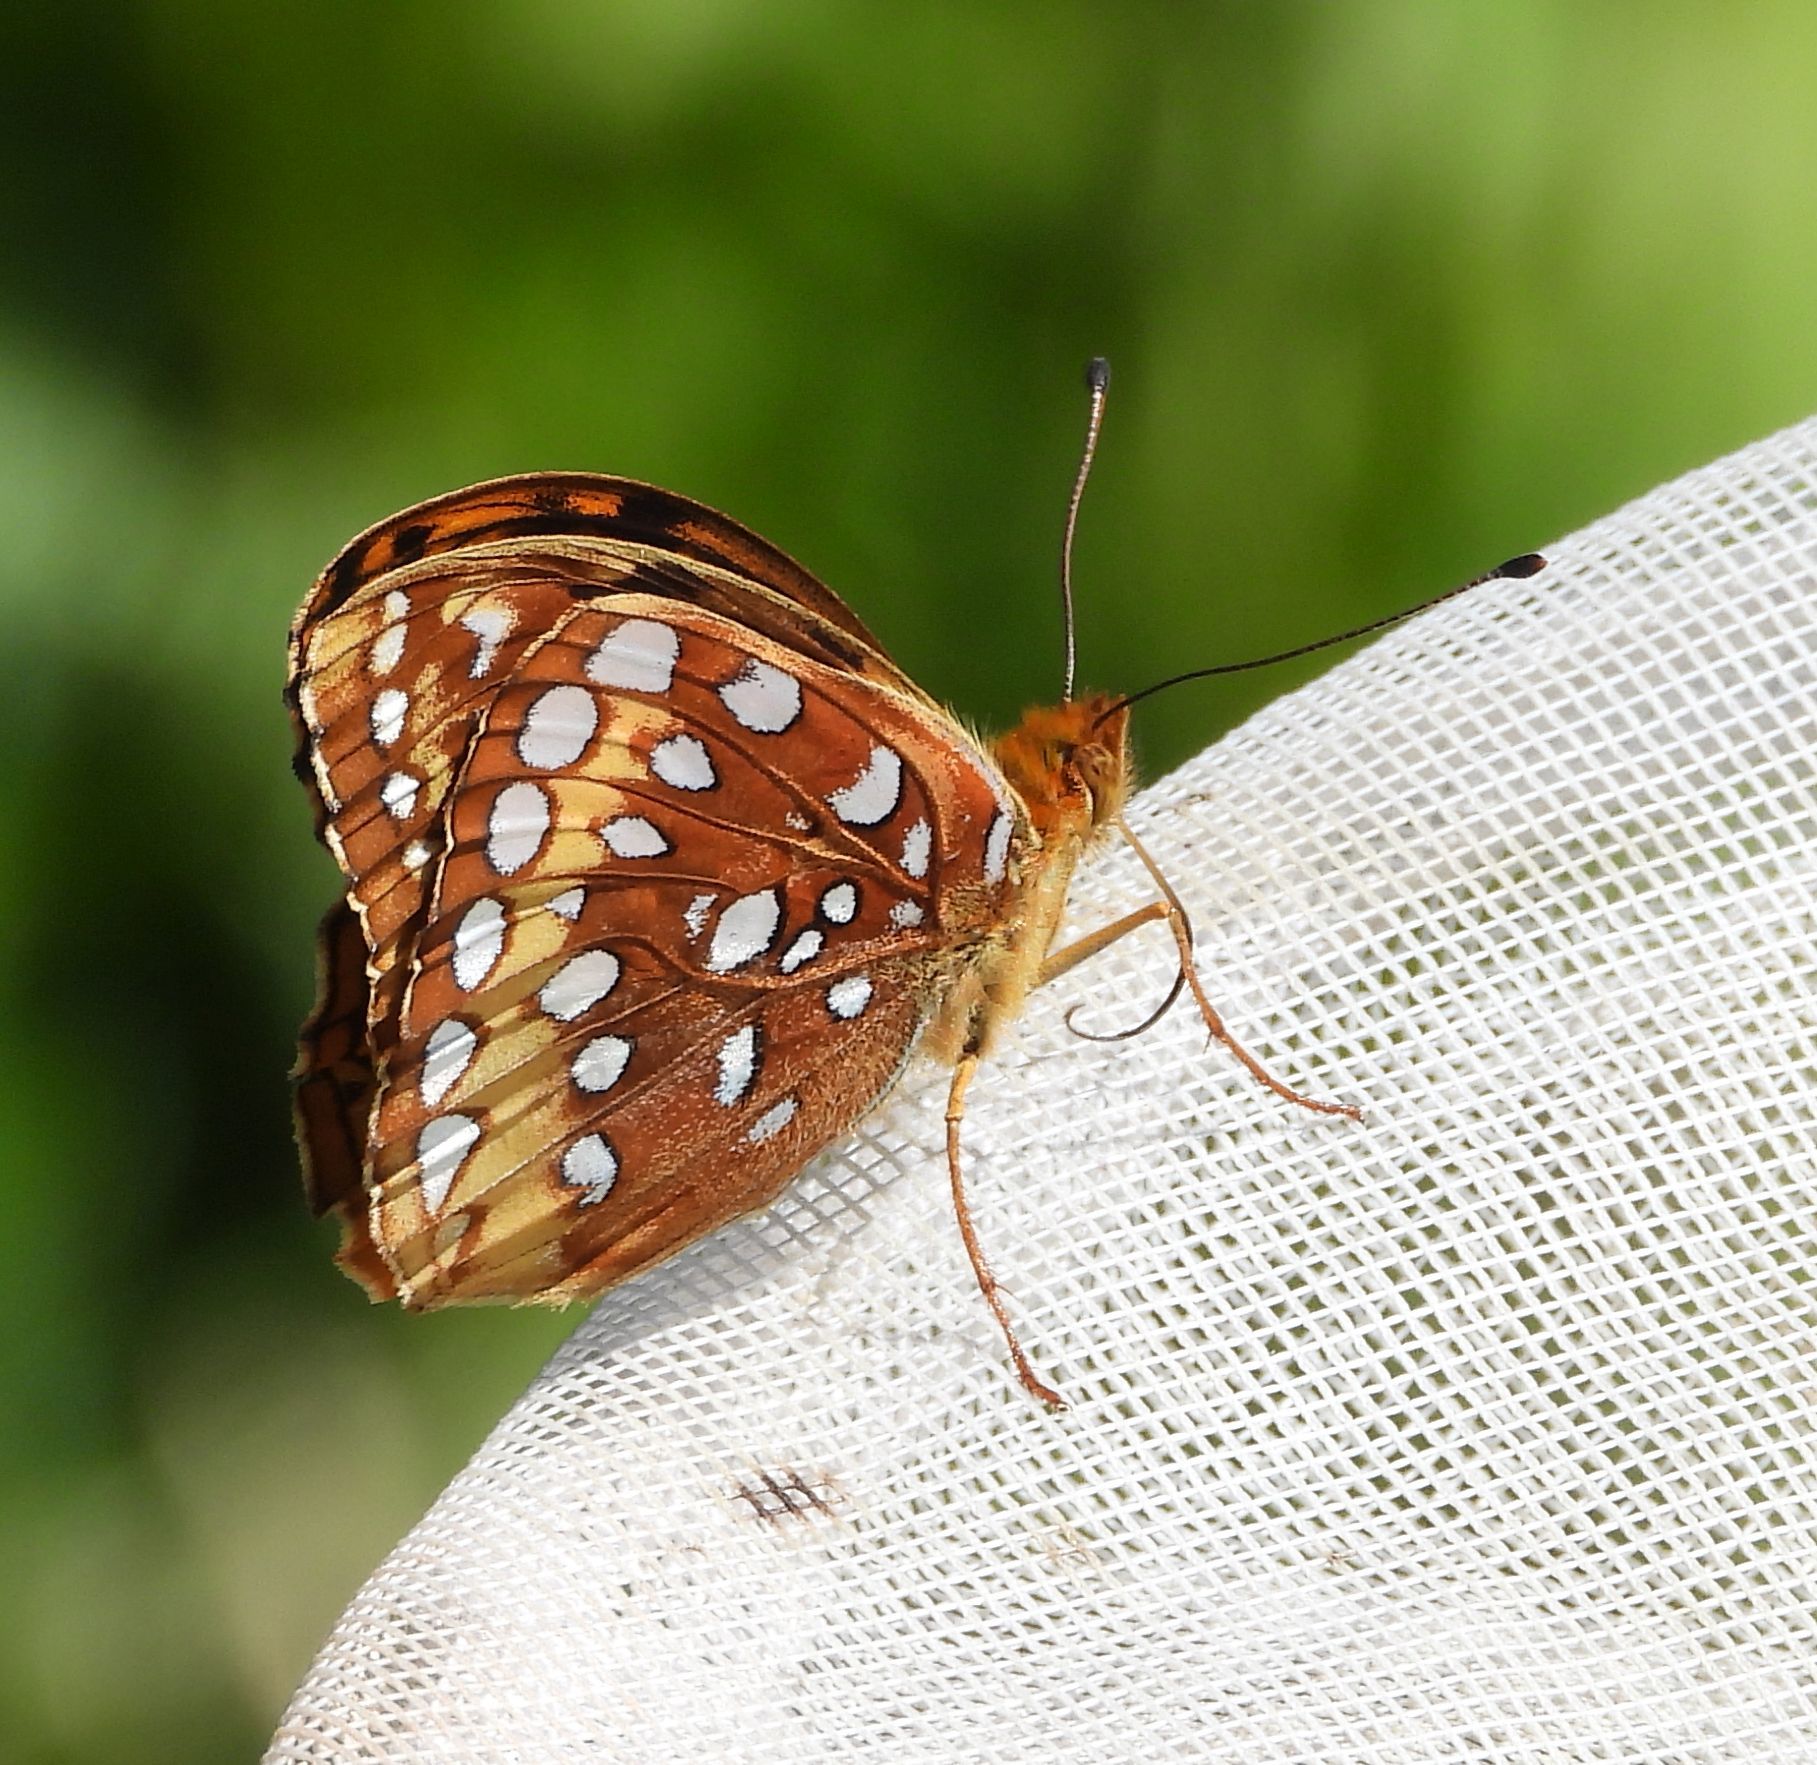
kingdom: Animalia
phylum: Arthropoda
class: Insecta
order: Lepidoptera
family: Nymphalidae
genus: Speyeria
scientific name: Speyeria cybele
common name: Great spangled fritillary
